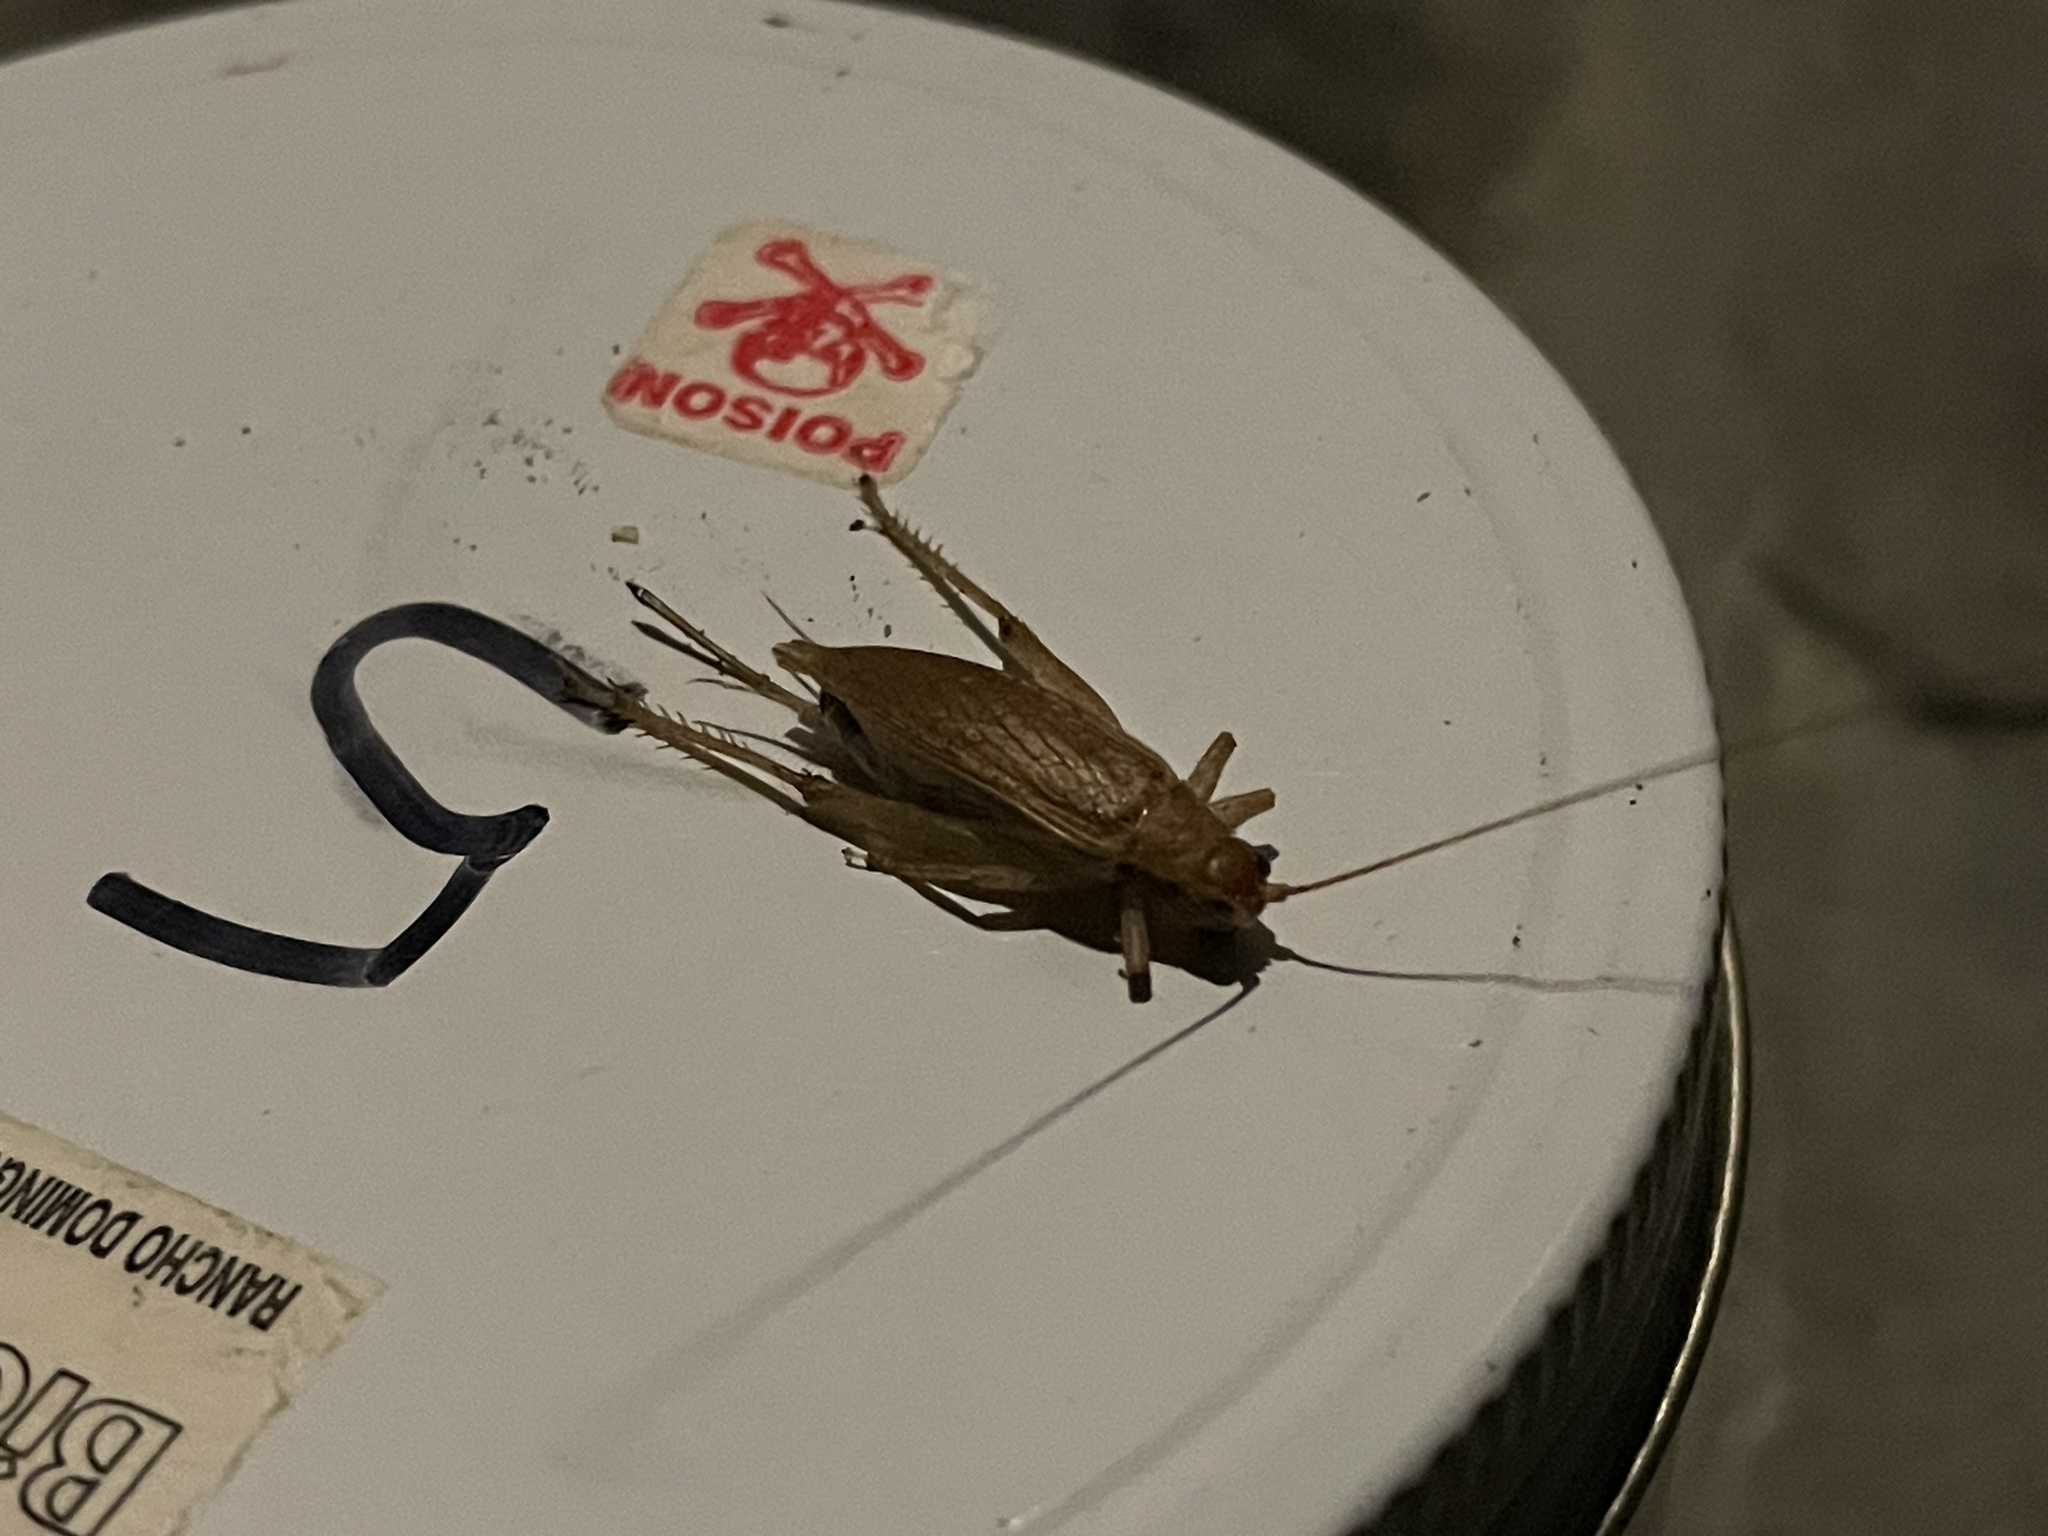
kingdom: Animalia
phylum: Arthropoda
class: Insecta
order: Orthoptera
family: Gryllidae
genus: Hapithus
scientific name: Hapithus saltator
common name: Jumping bush cricket
